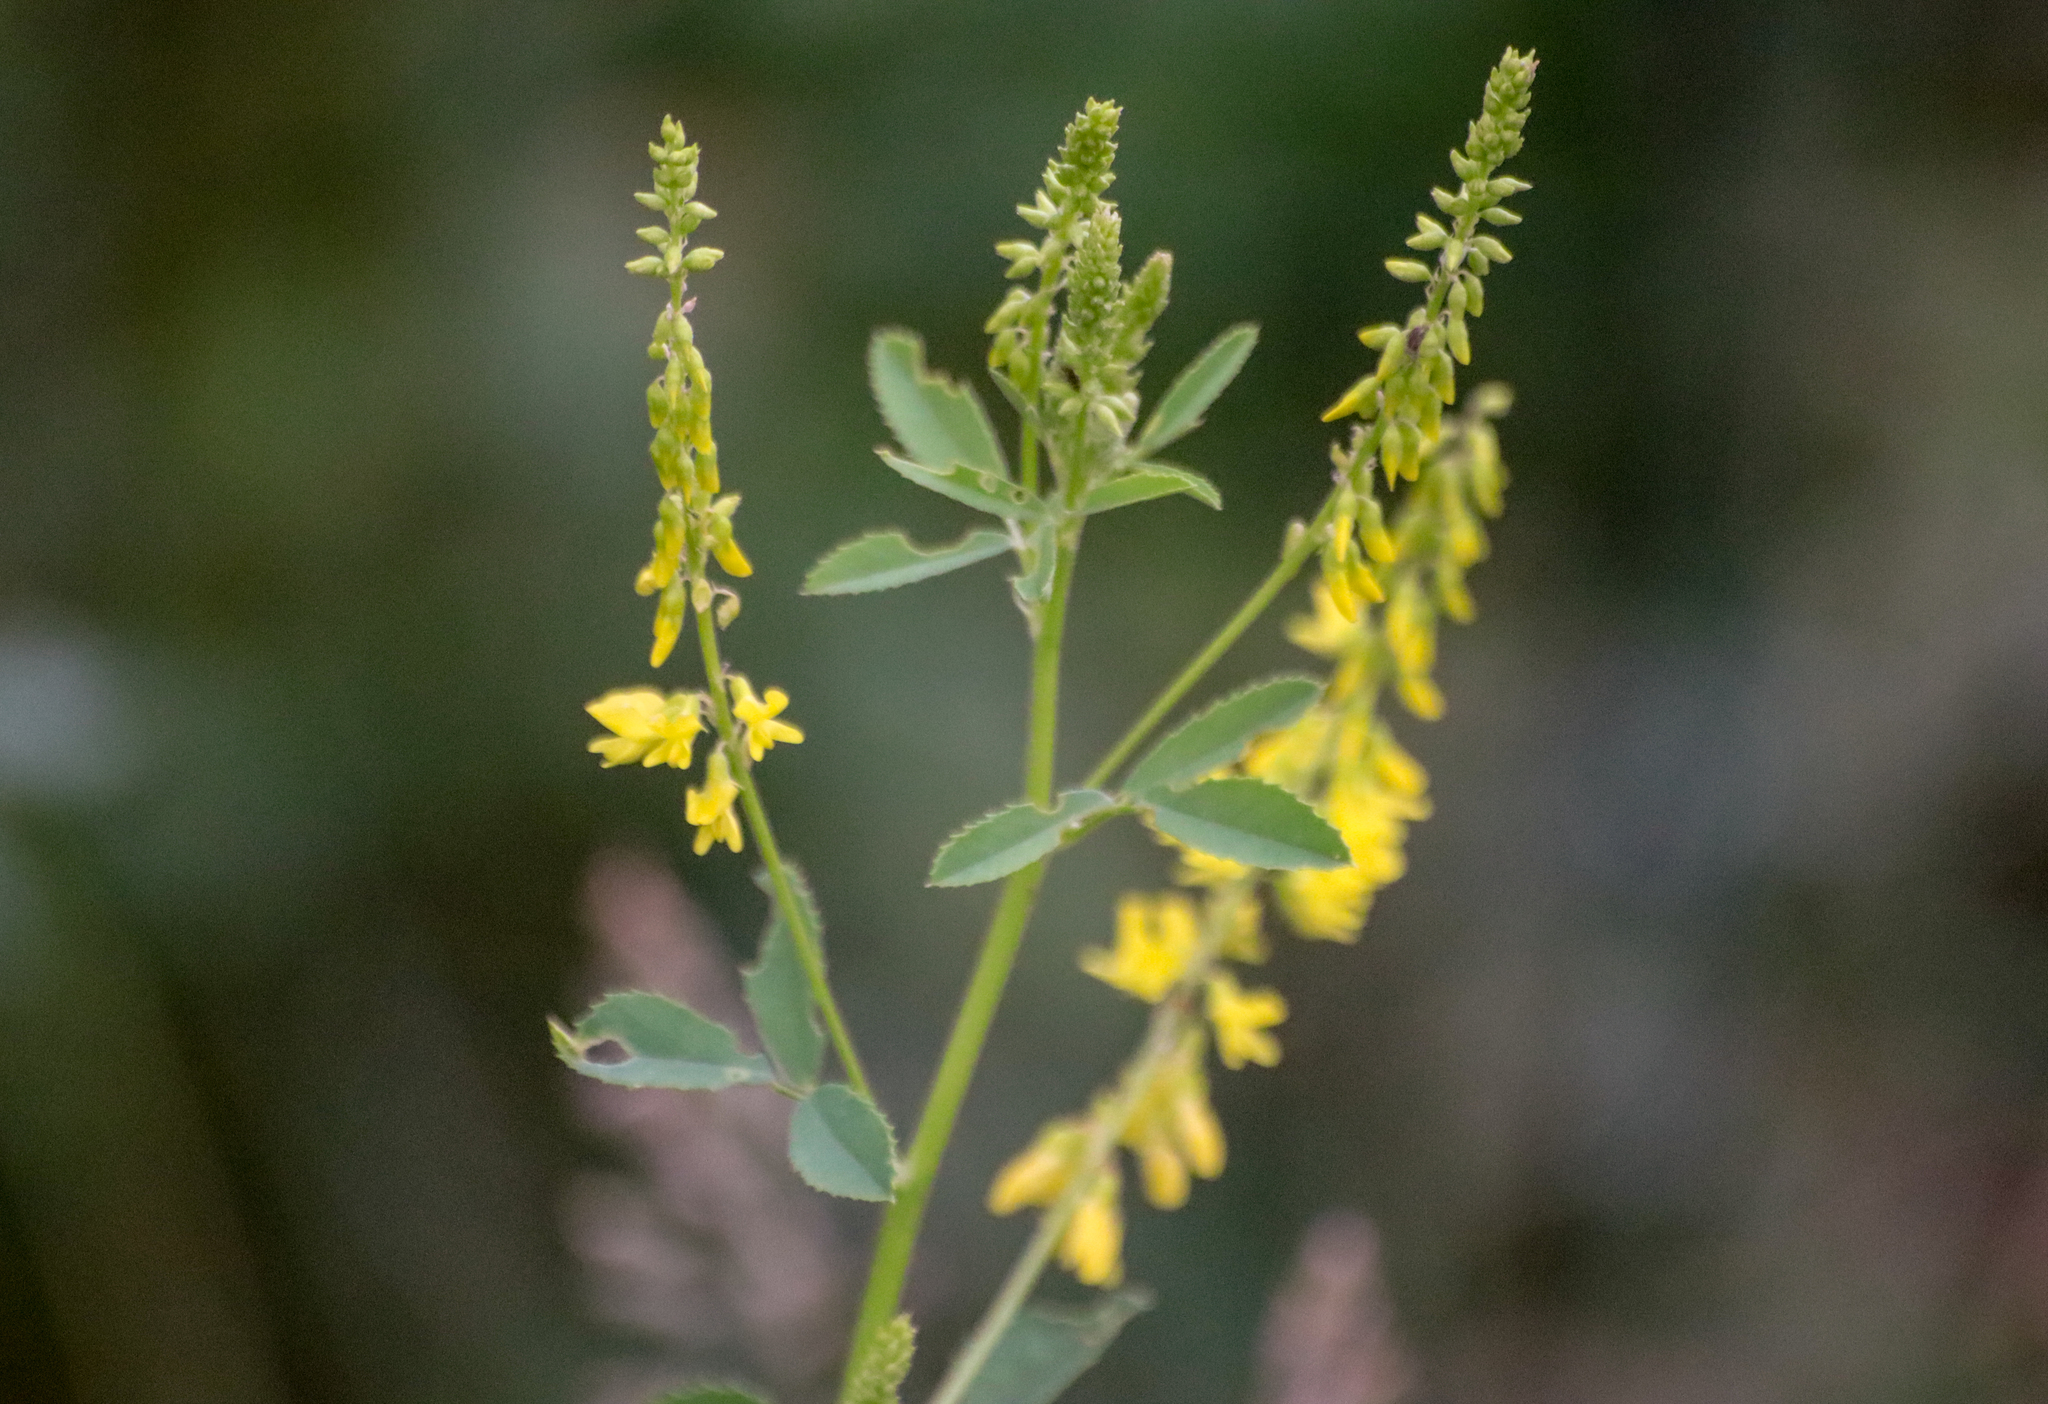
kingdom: Plantae
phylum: Tracheophyta
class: Magnoliopsida
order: Fabales
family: Fabaceae
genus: Melilotus
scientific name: Melilotus officinalis
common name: Sweetclover
